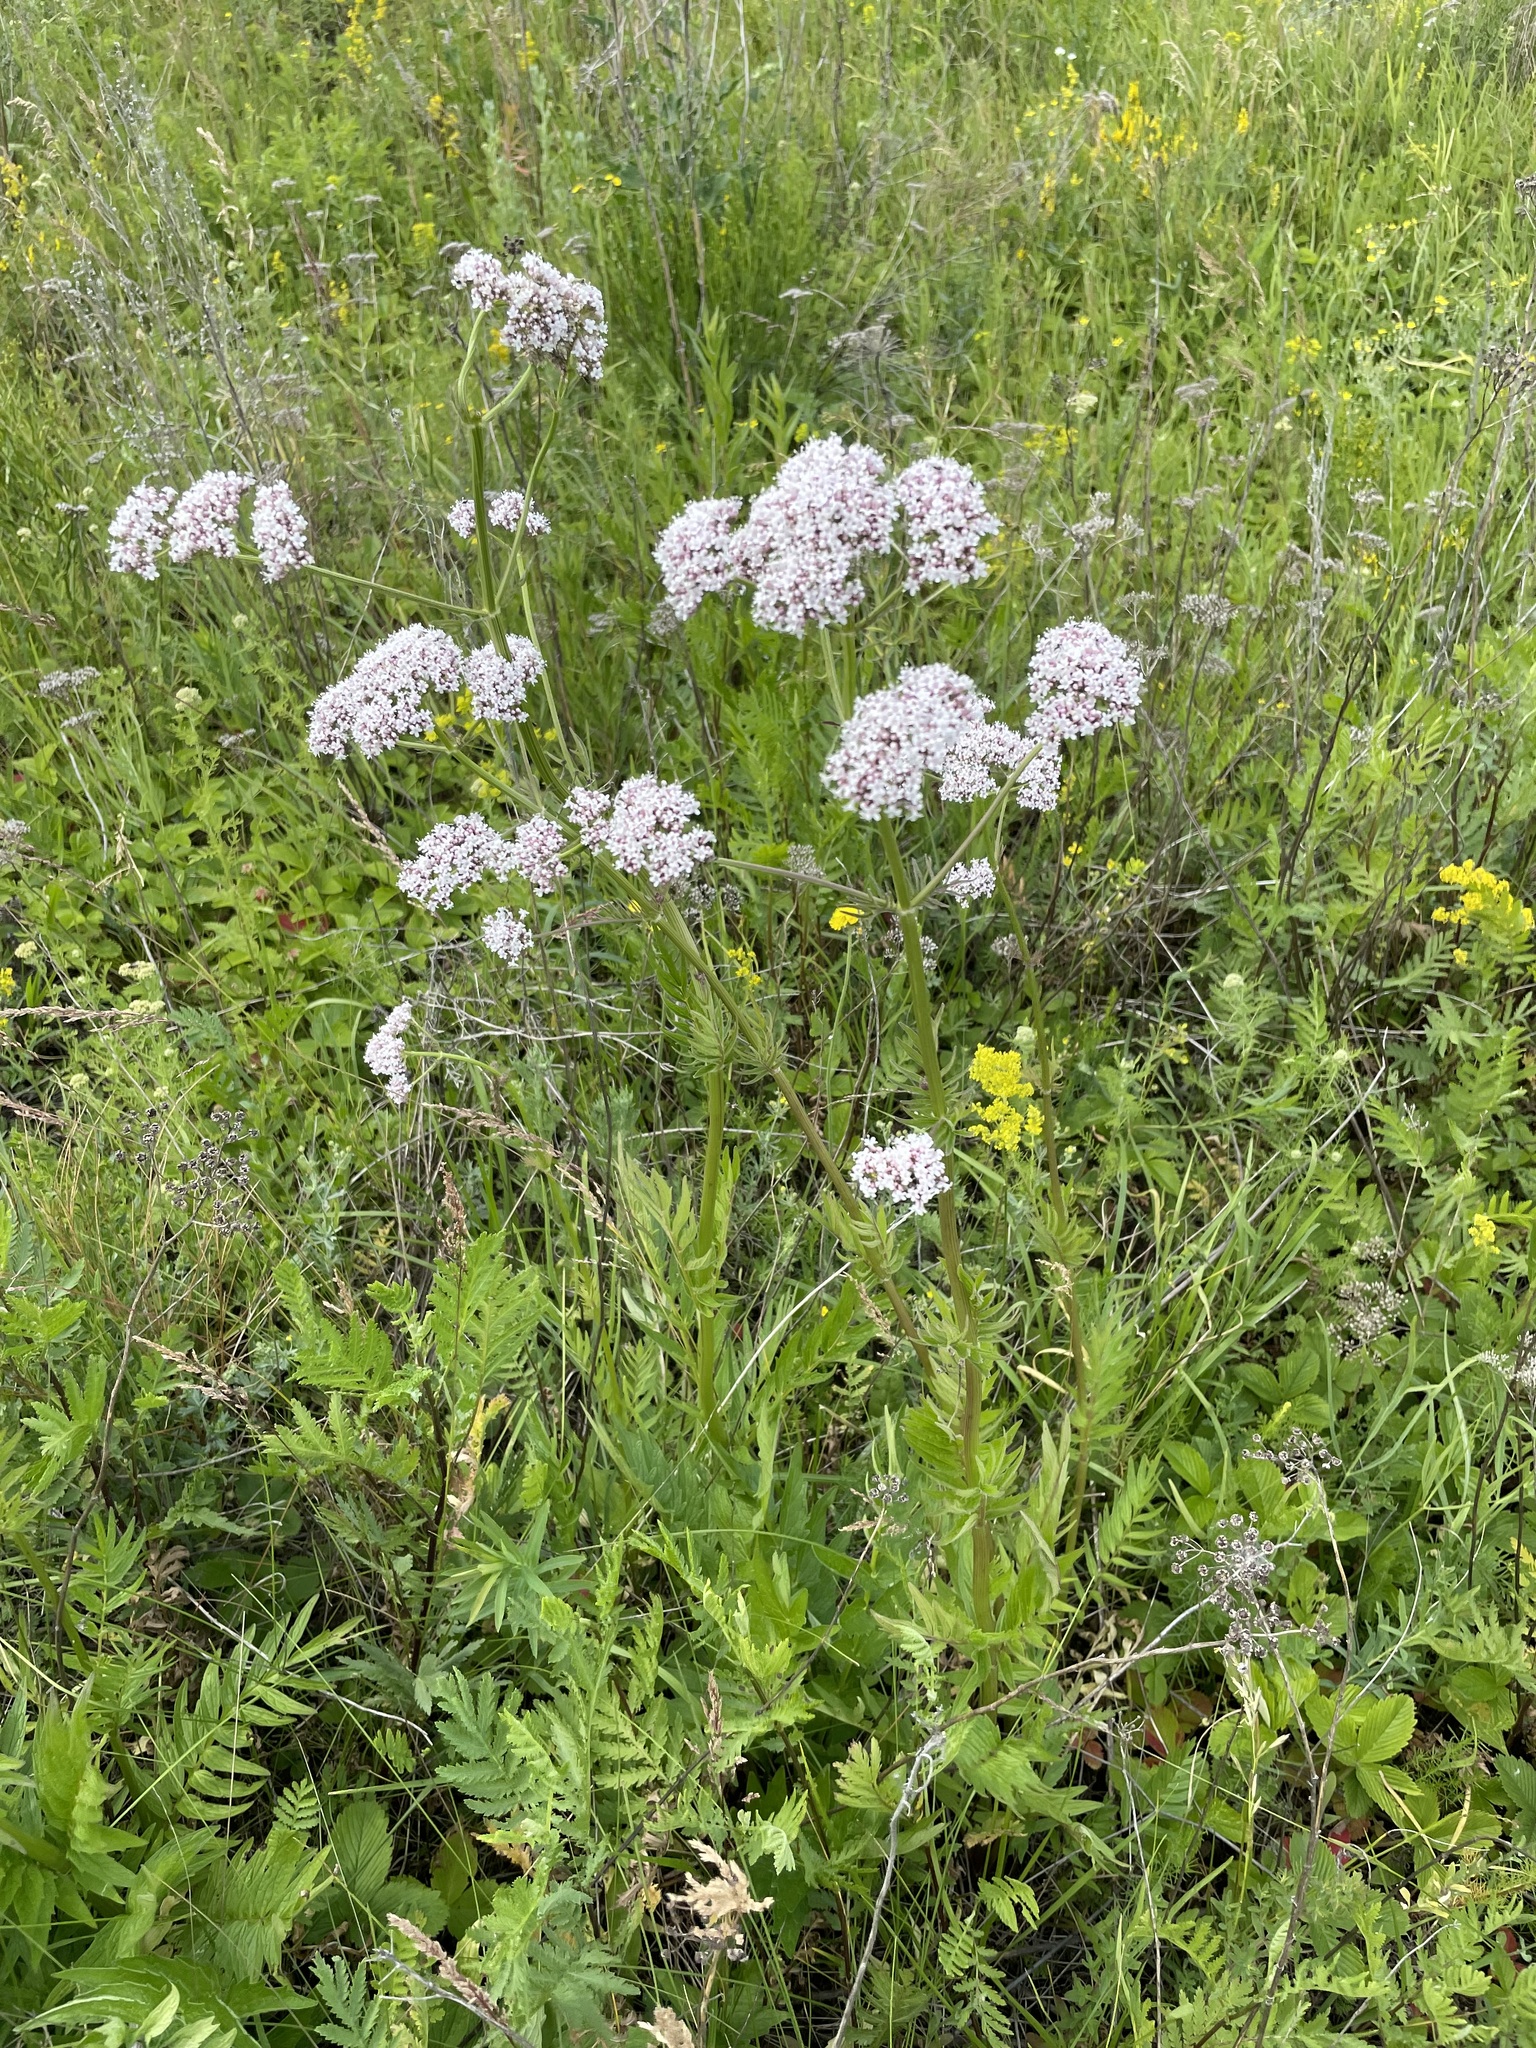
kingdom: Plantae
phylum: Tracheophyta
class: Magnoliopsida
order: Dipsacales
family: Caprifoliaceae
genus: Valeriana
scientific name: Valeriana officinalis
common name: Common valerian
